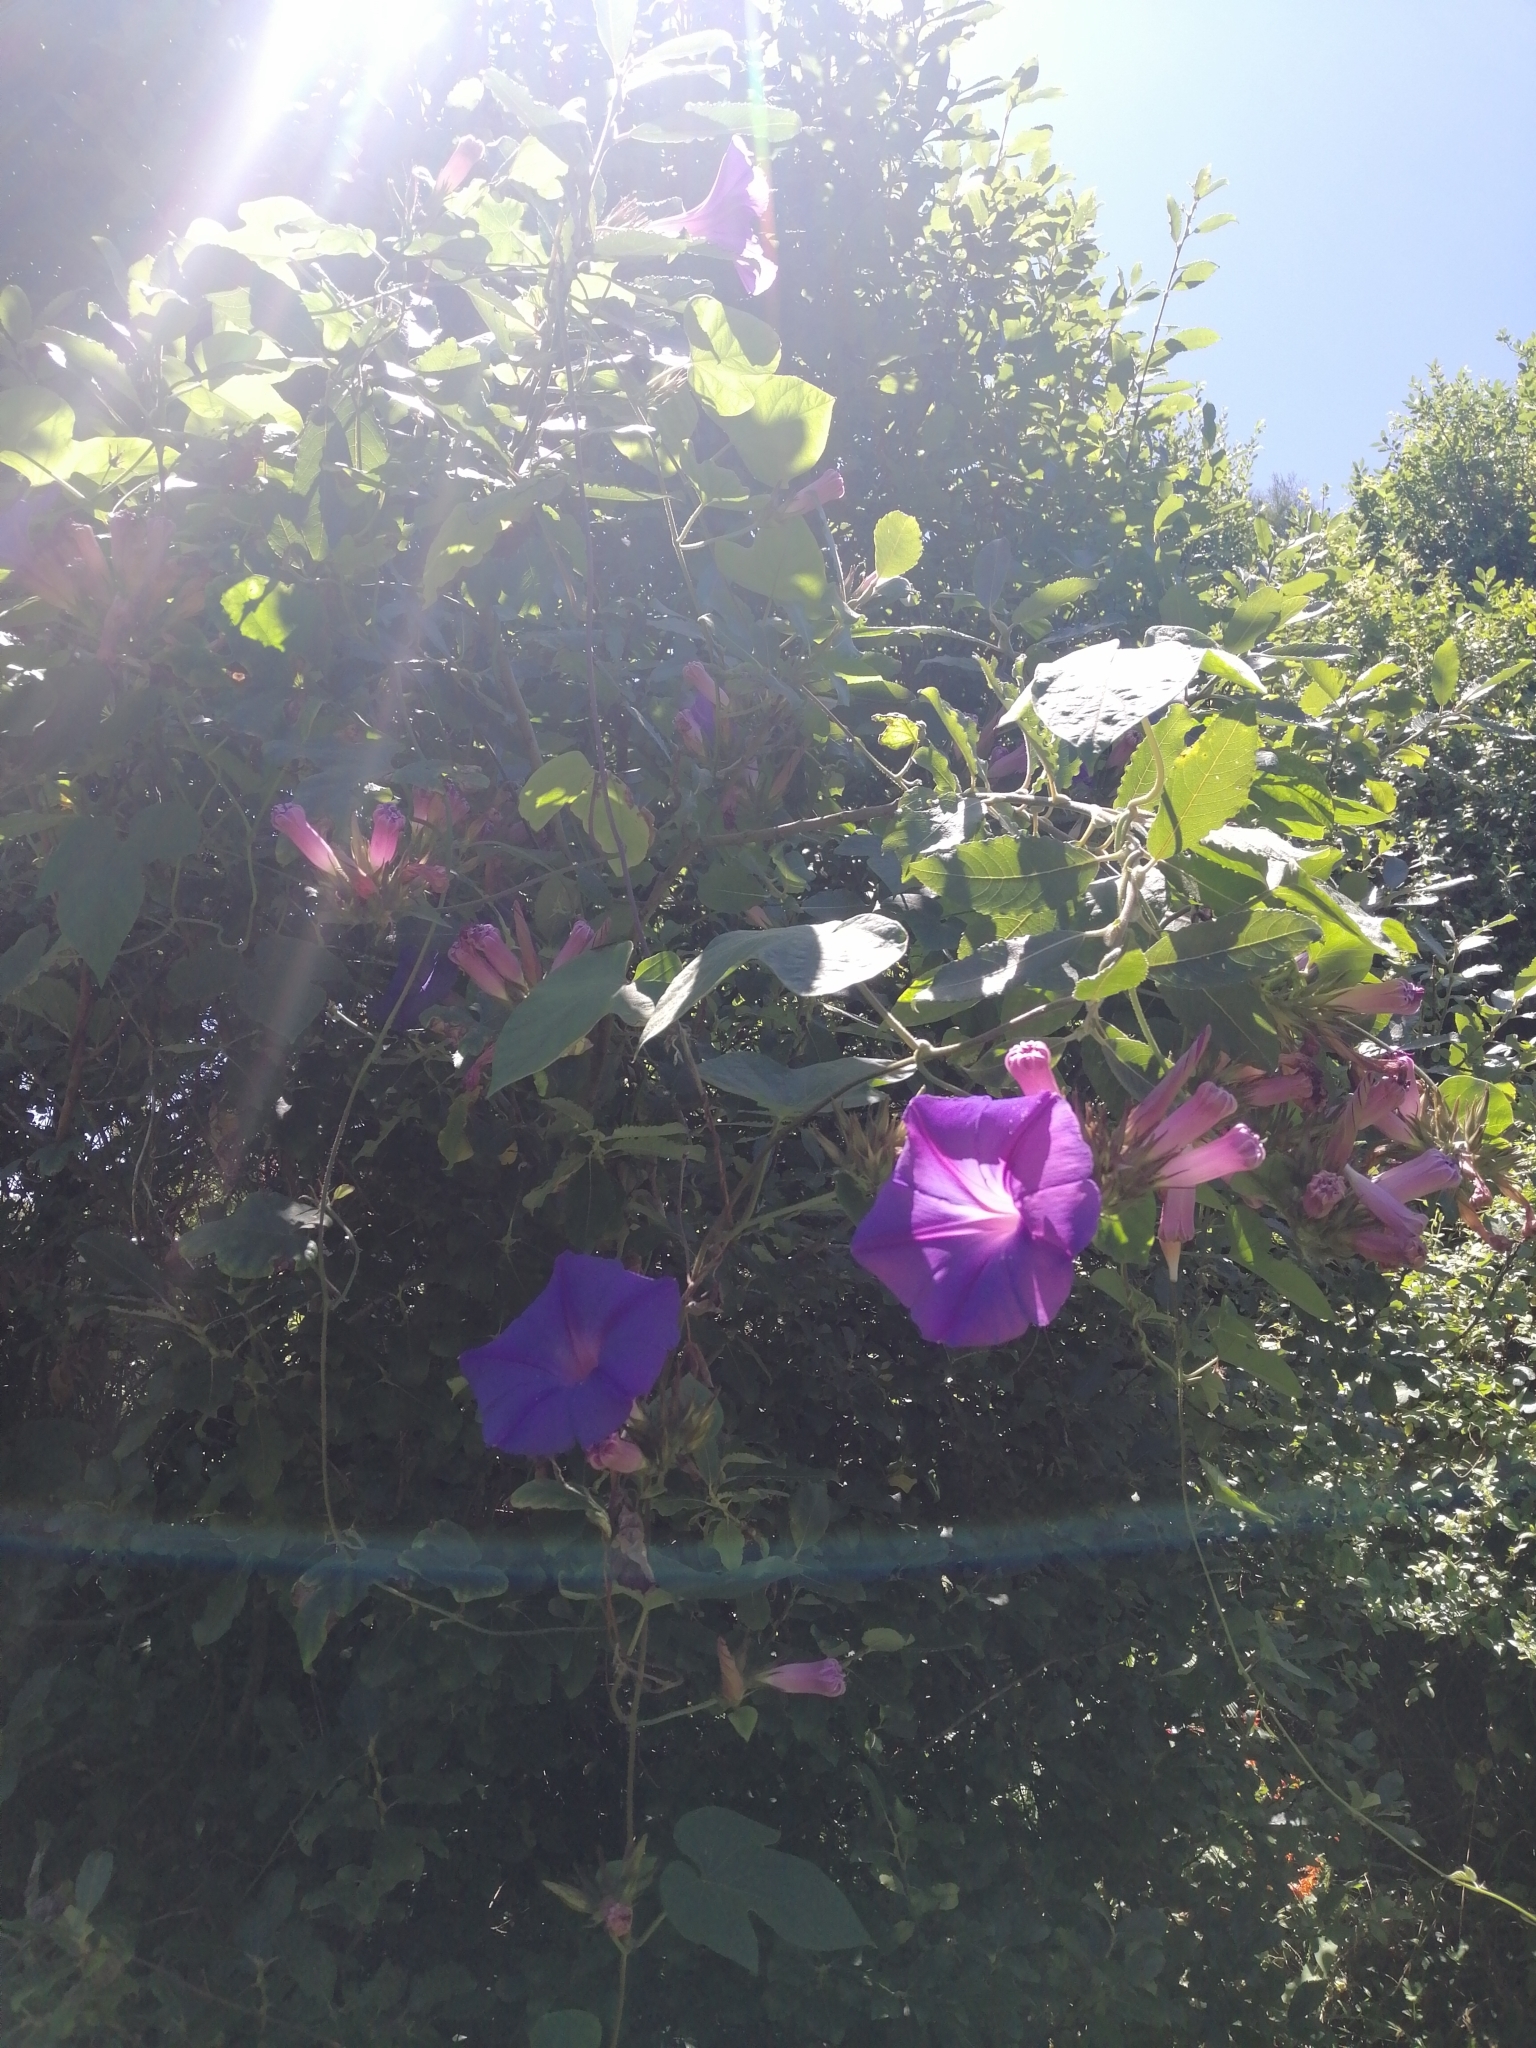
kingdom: Plantae
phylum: Tracheophyta
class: Magnoliopsida
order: Solanales
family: Convolvulaceae
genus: Ipomoea
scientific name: Ipomoea indica
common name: Blue dawnflower
